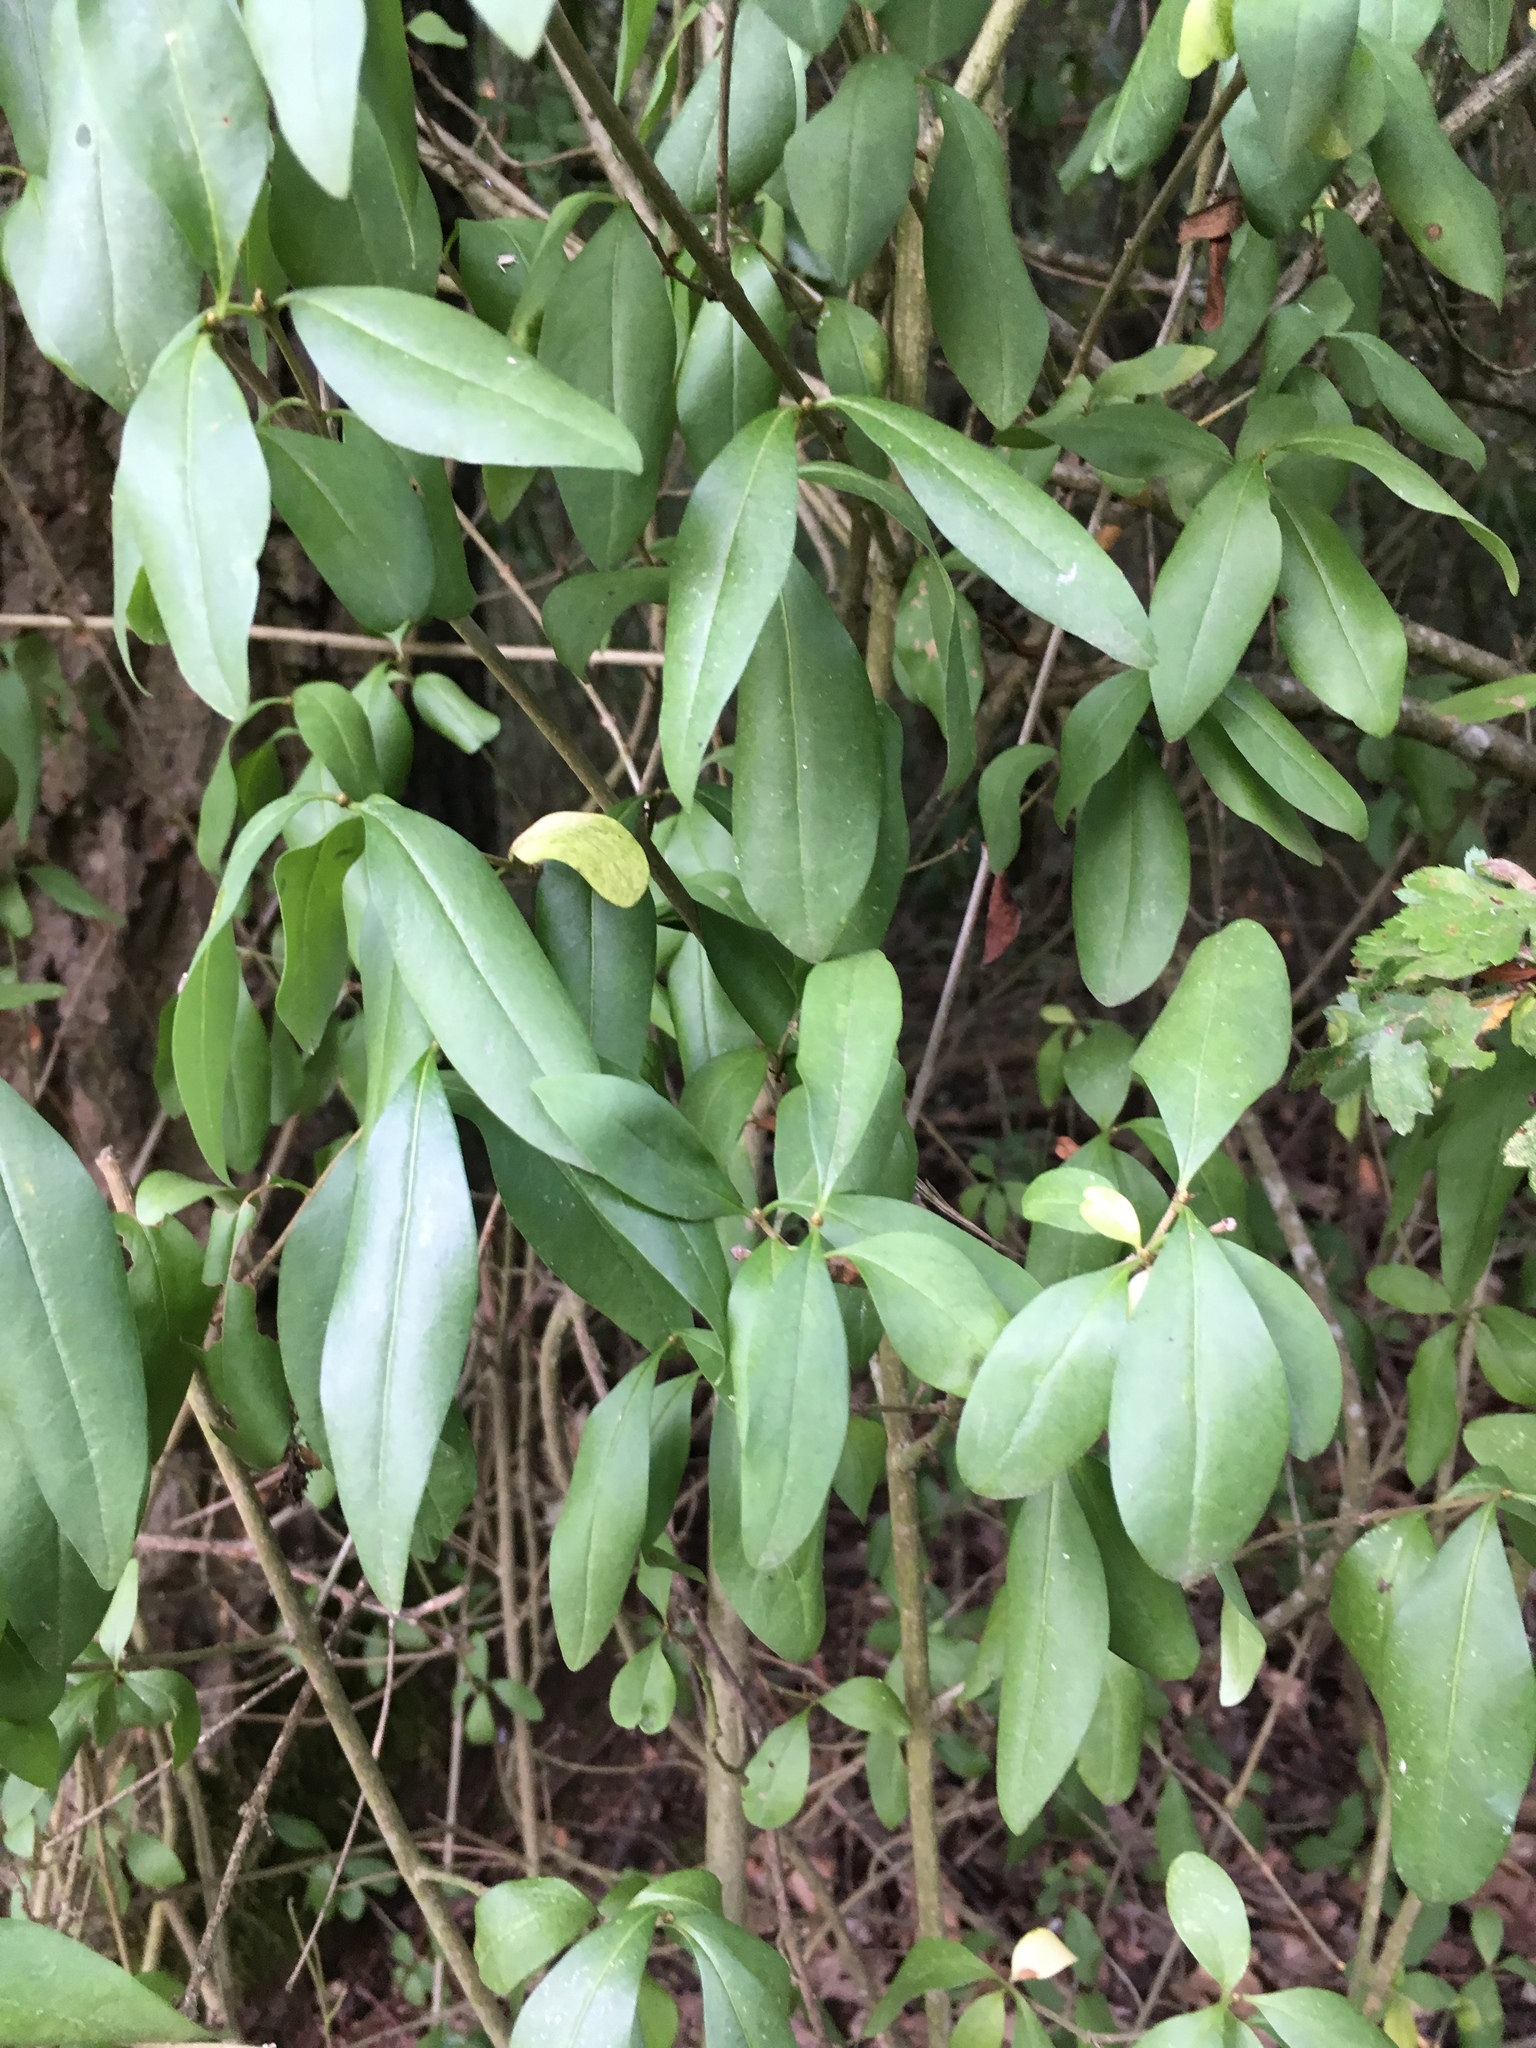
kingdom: Plantae
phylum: Tracheophyta
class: Magnoliopsida
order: Lamiales
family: Oleaceae
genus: Ligustrum
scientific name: Ligustrum vulgare
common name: Wild privet
